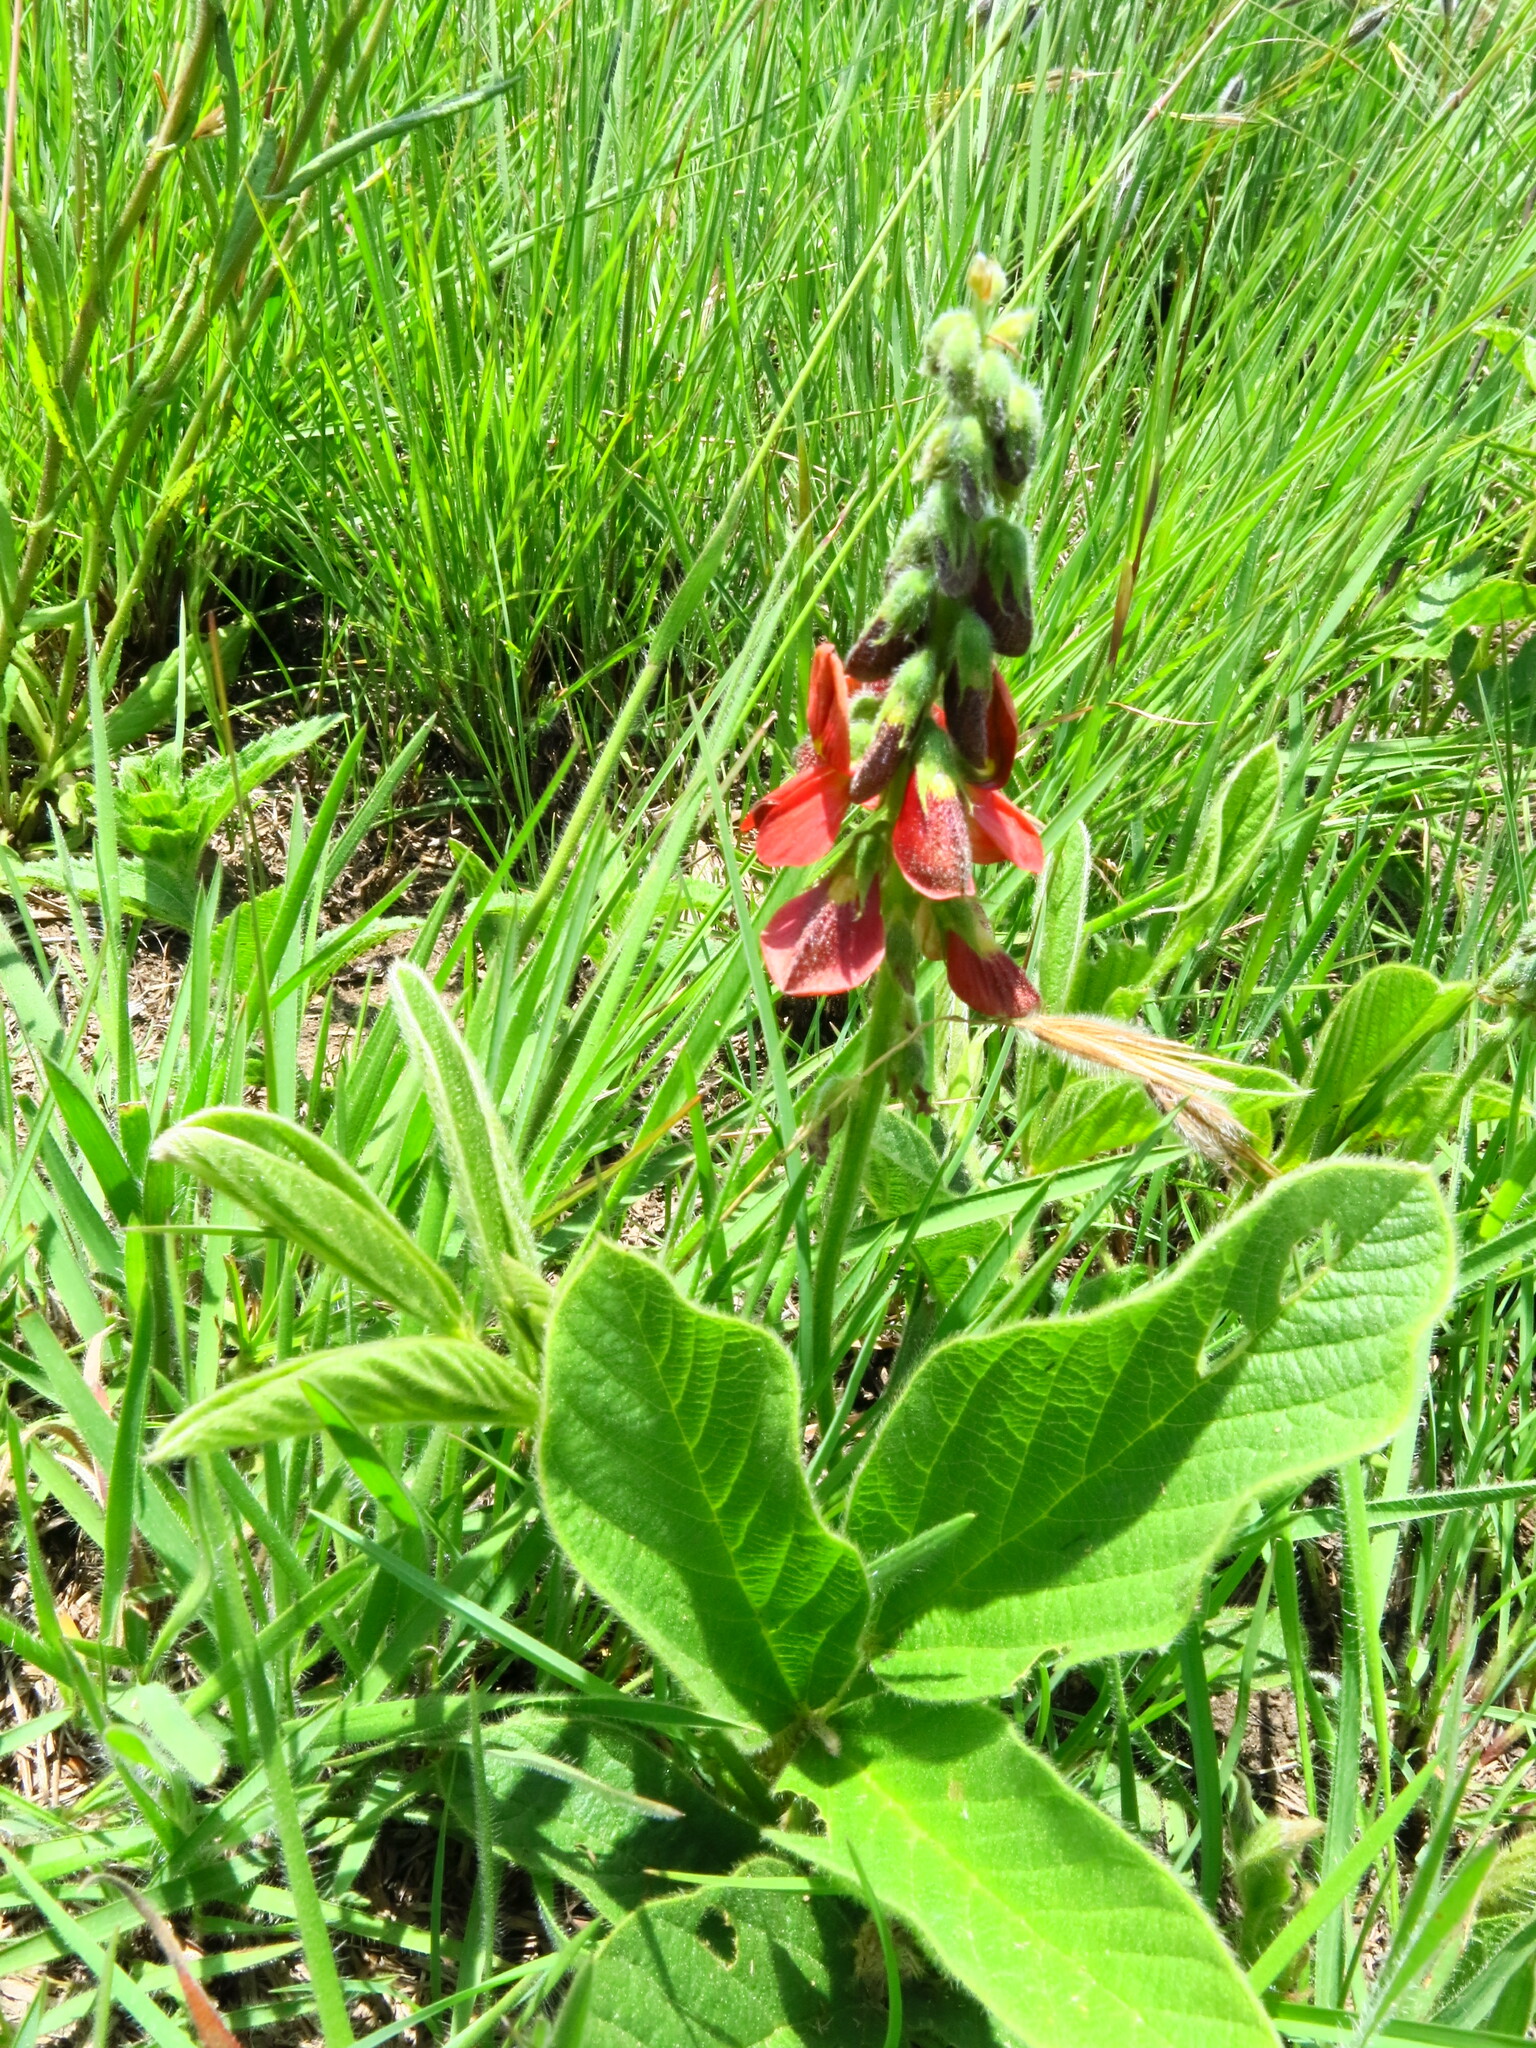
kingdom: Plantae
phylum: Tracheophyta
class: Magnoliopsida
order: Fabales
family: Fabaceae
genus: Eriosema
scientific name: Eriosema distinctum
